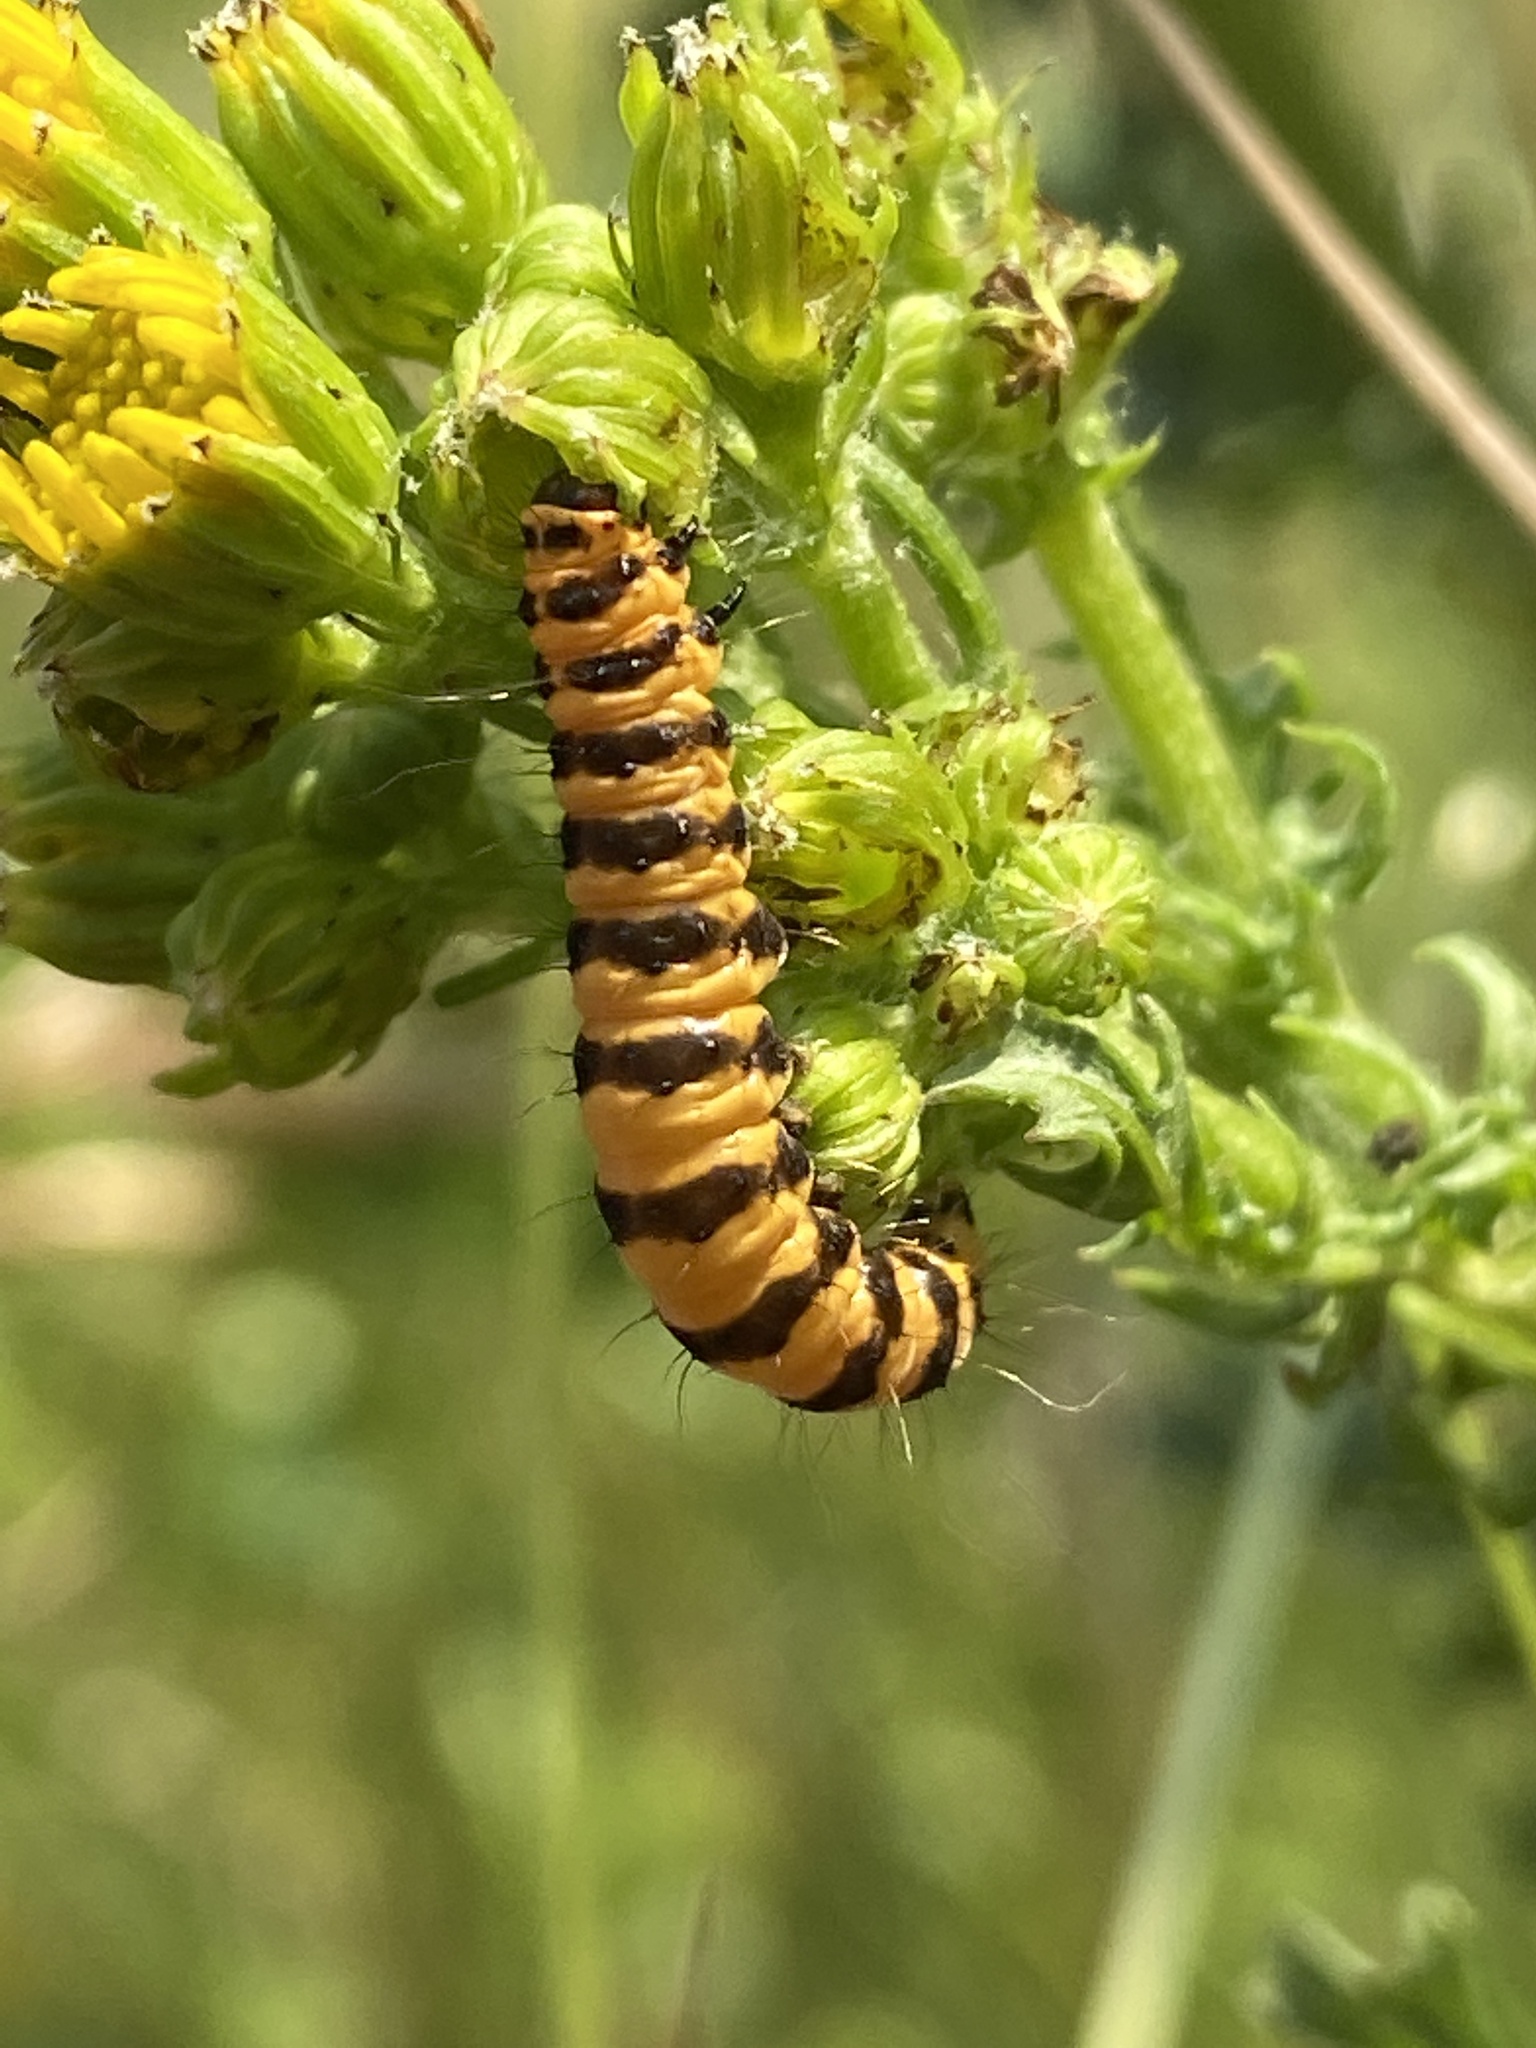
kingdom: Animalia
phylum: Arthropoda
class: Insecta
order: Lepidoptera
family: Erebidae
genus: Tyria
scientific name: Tyria jacobaeae
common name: Cinnabar
